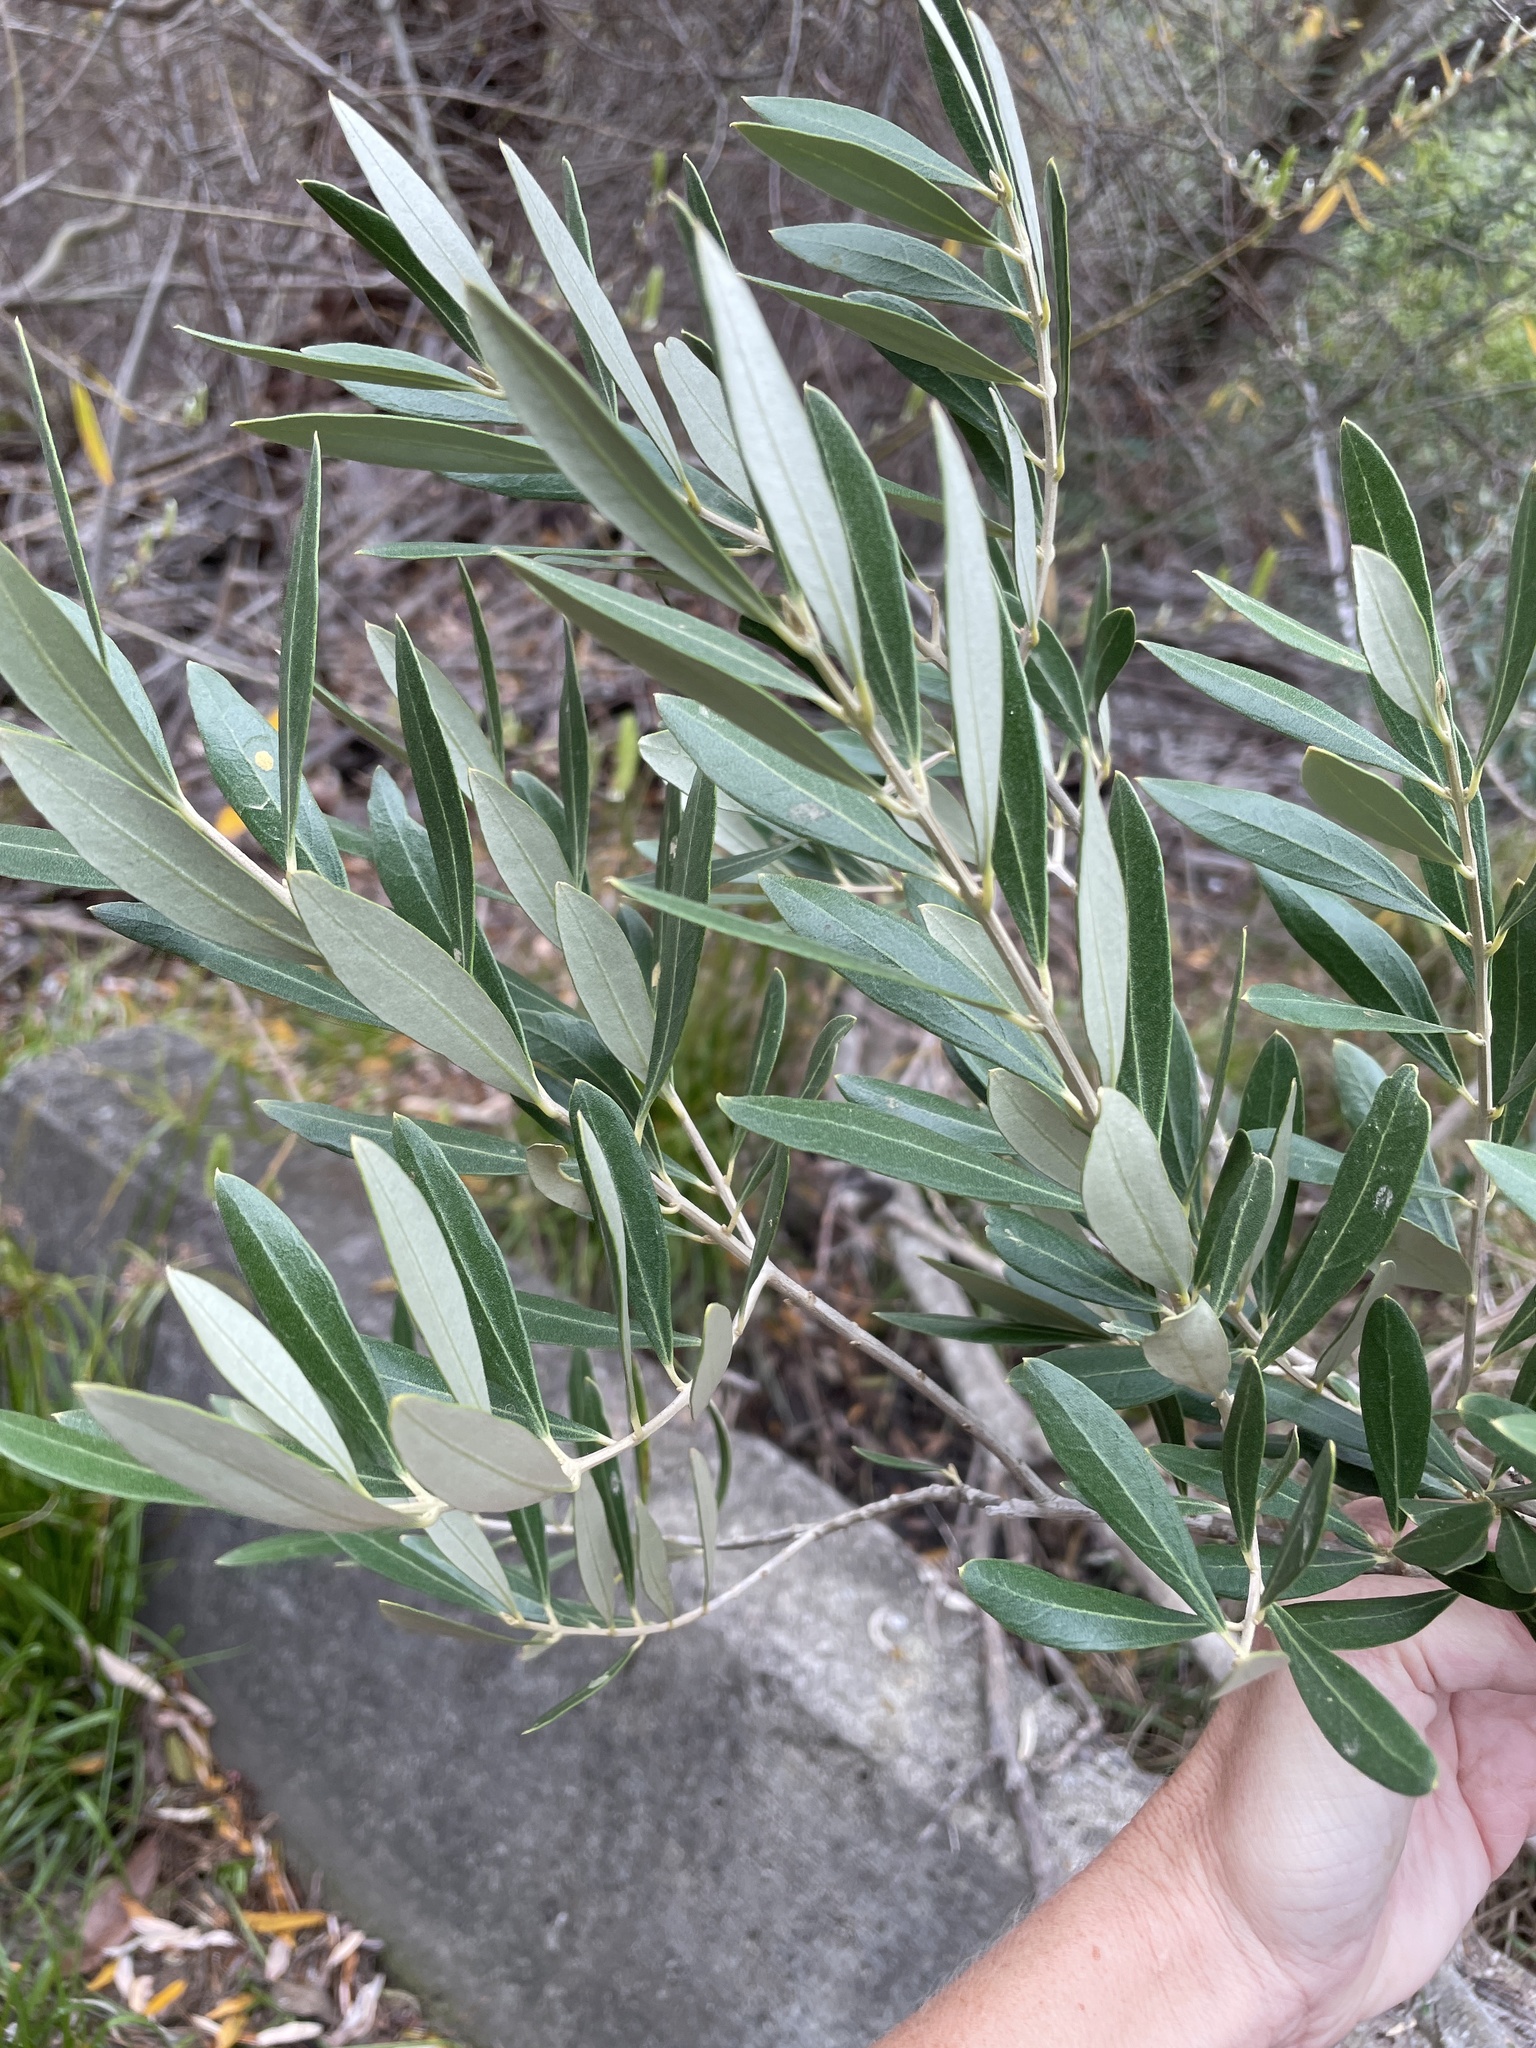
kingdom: Plantae
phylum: Tracheophyta
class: Magnoliopsida
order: Lamiales
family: Oleaceae
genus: Olea
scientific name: Olea europaea
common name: Olive
